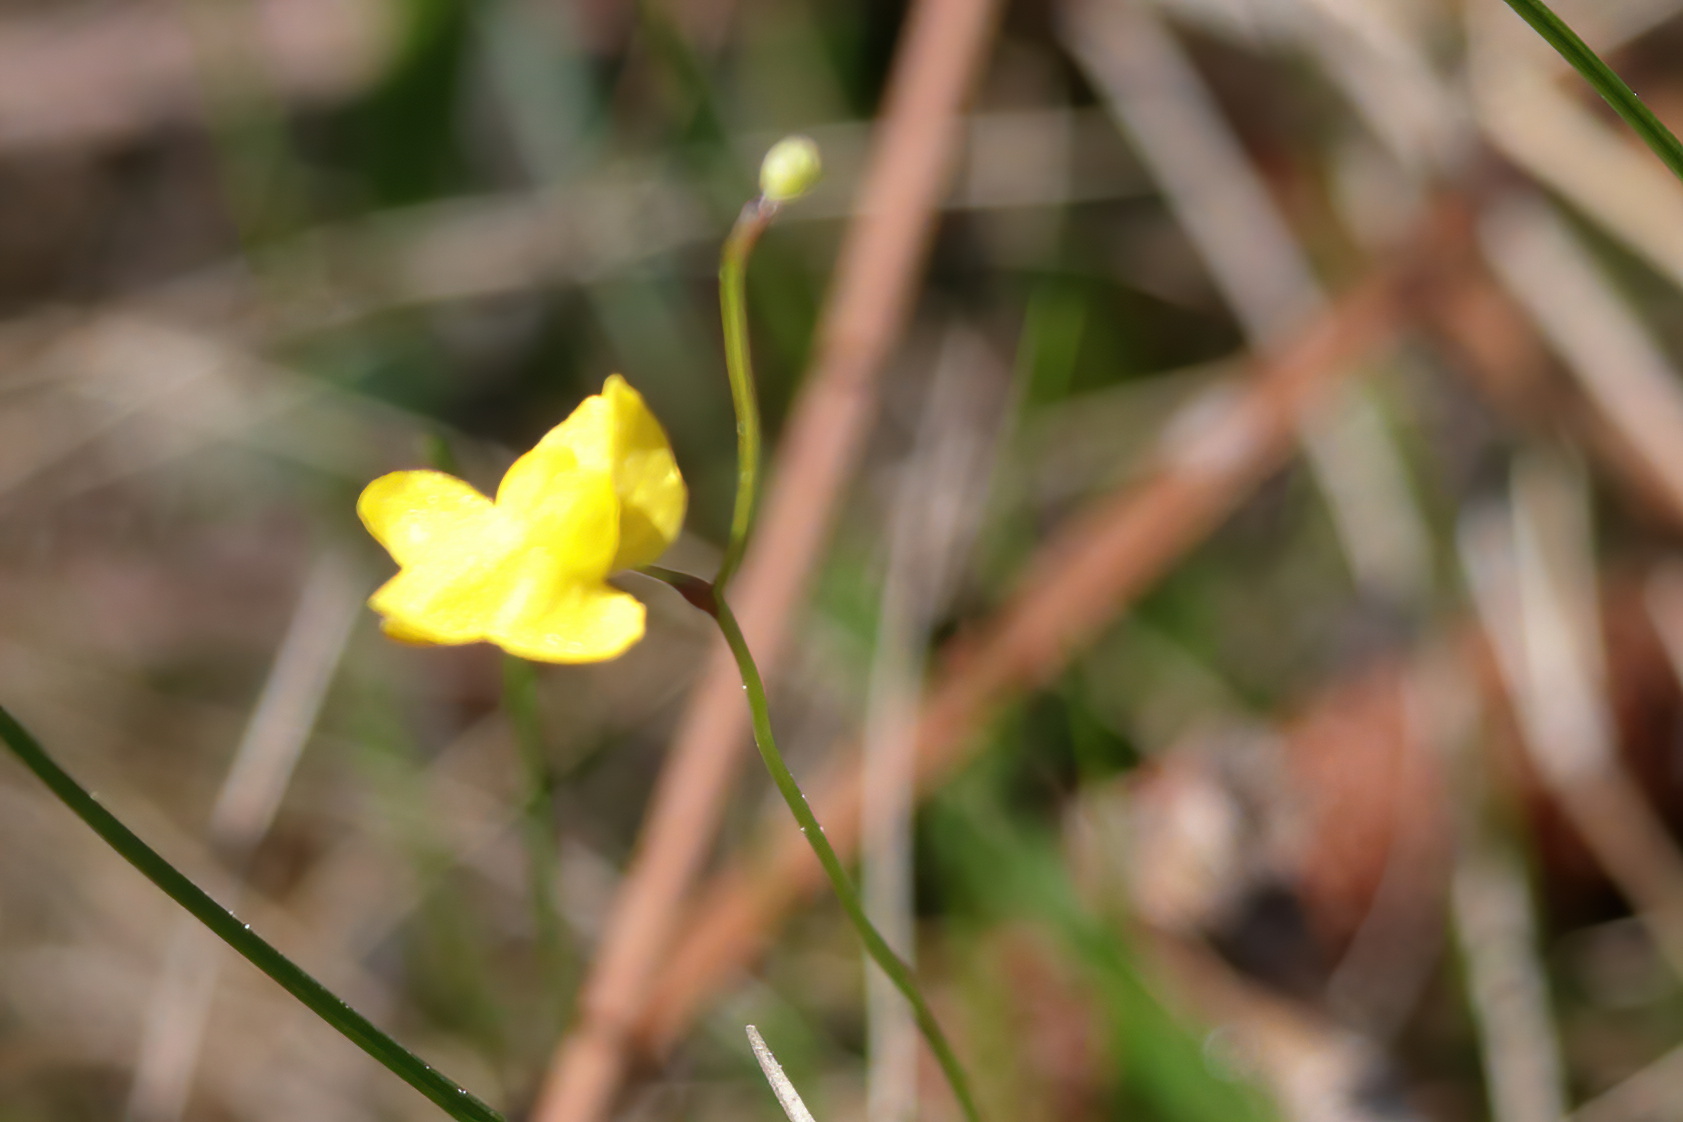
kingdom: Plantae
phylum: Tracheophyta
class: Magnoliopsida
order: Lamiales
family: Lentibulariaceae
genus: Utricularia
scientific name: Utricularia subulata
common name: Tiny bladderwort
